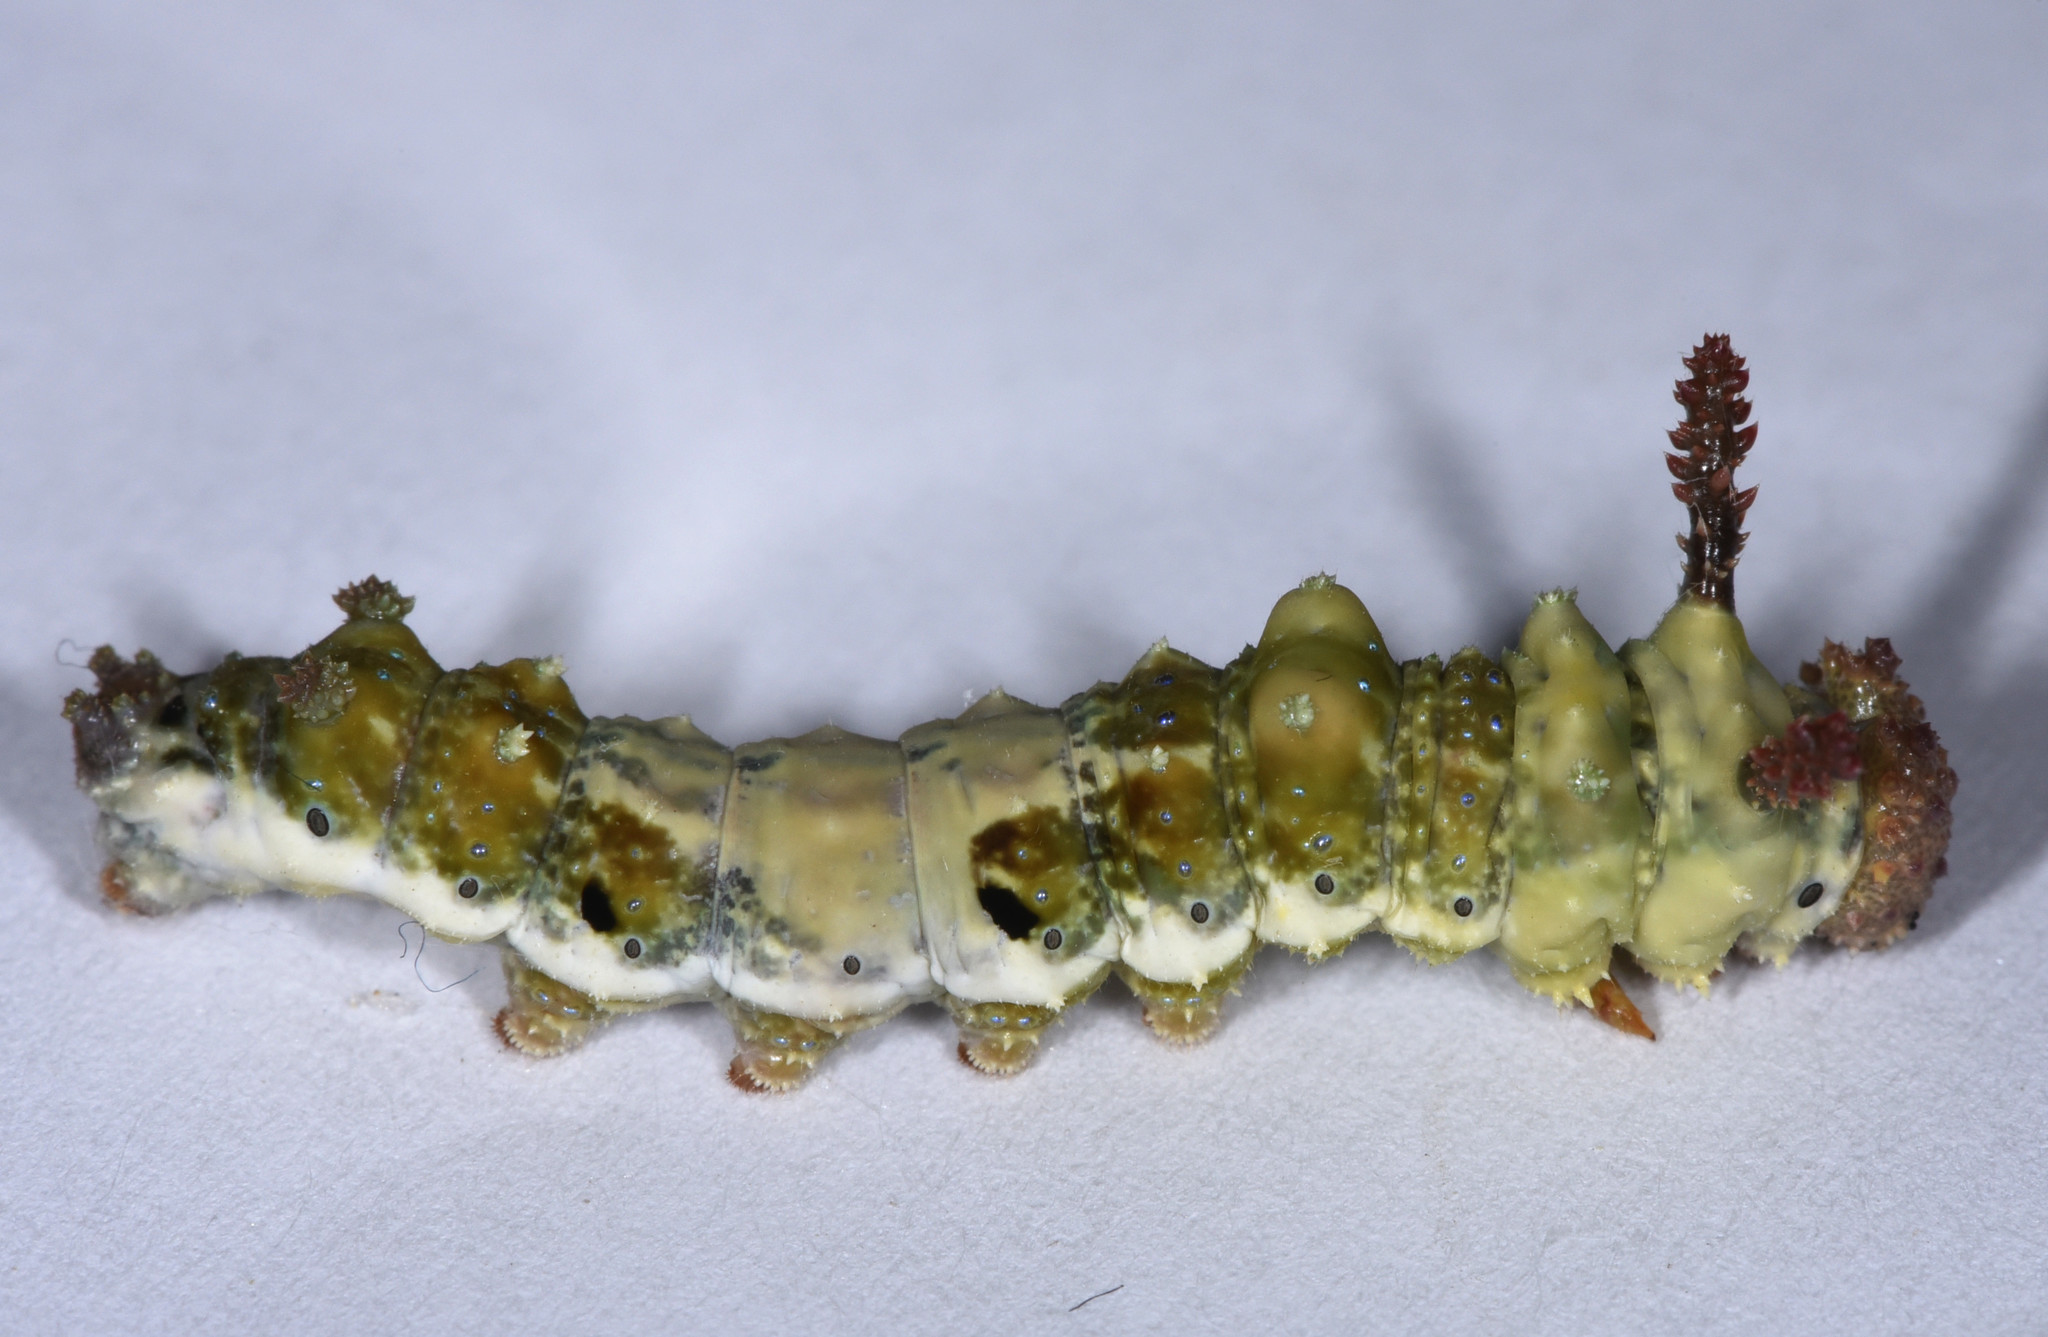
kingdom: Animalia
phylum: Arthropoda
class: Insecta
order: Lepidoptera
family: Nymphalidae
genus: Limenitis
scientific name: Limenitis lorquini
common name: Lorquin's admiral
